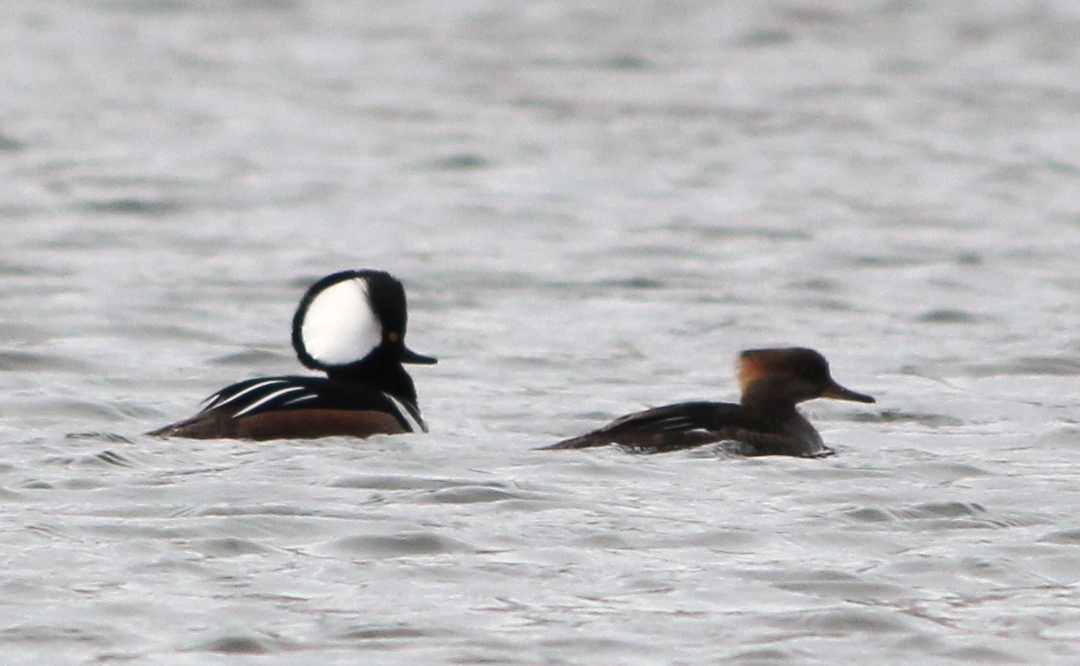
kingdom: Animalia
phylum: Chordata
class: Aves
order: Anseriformes
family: Anatidae
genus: Lophodytes
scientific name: Lophodytes cucullatus
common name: Hooded merganser
